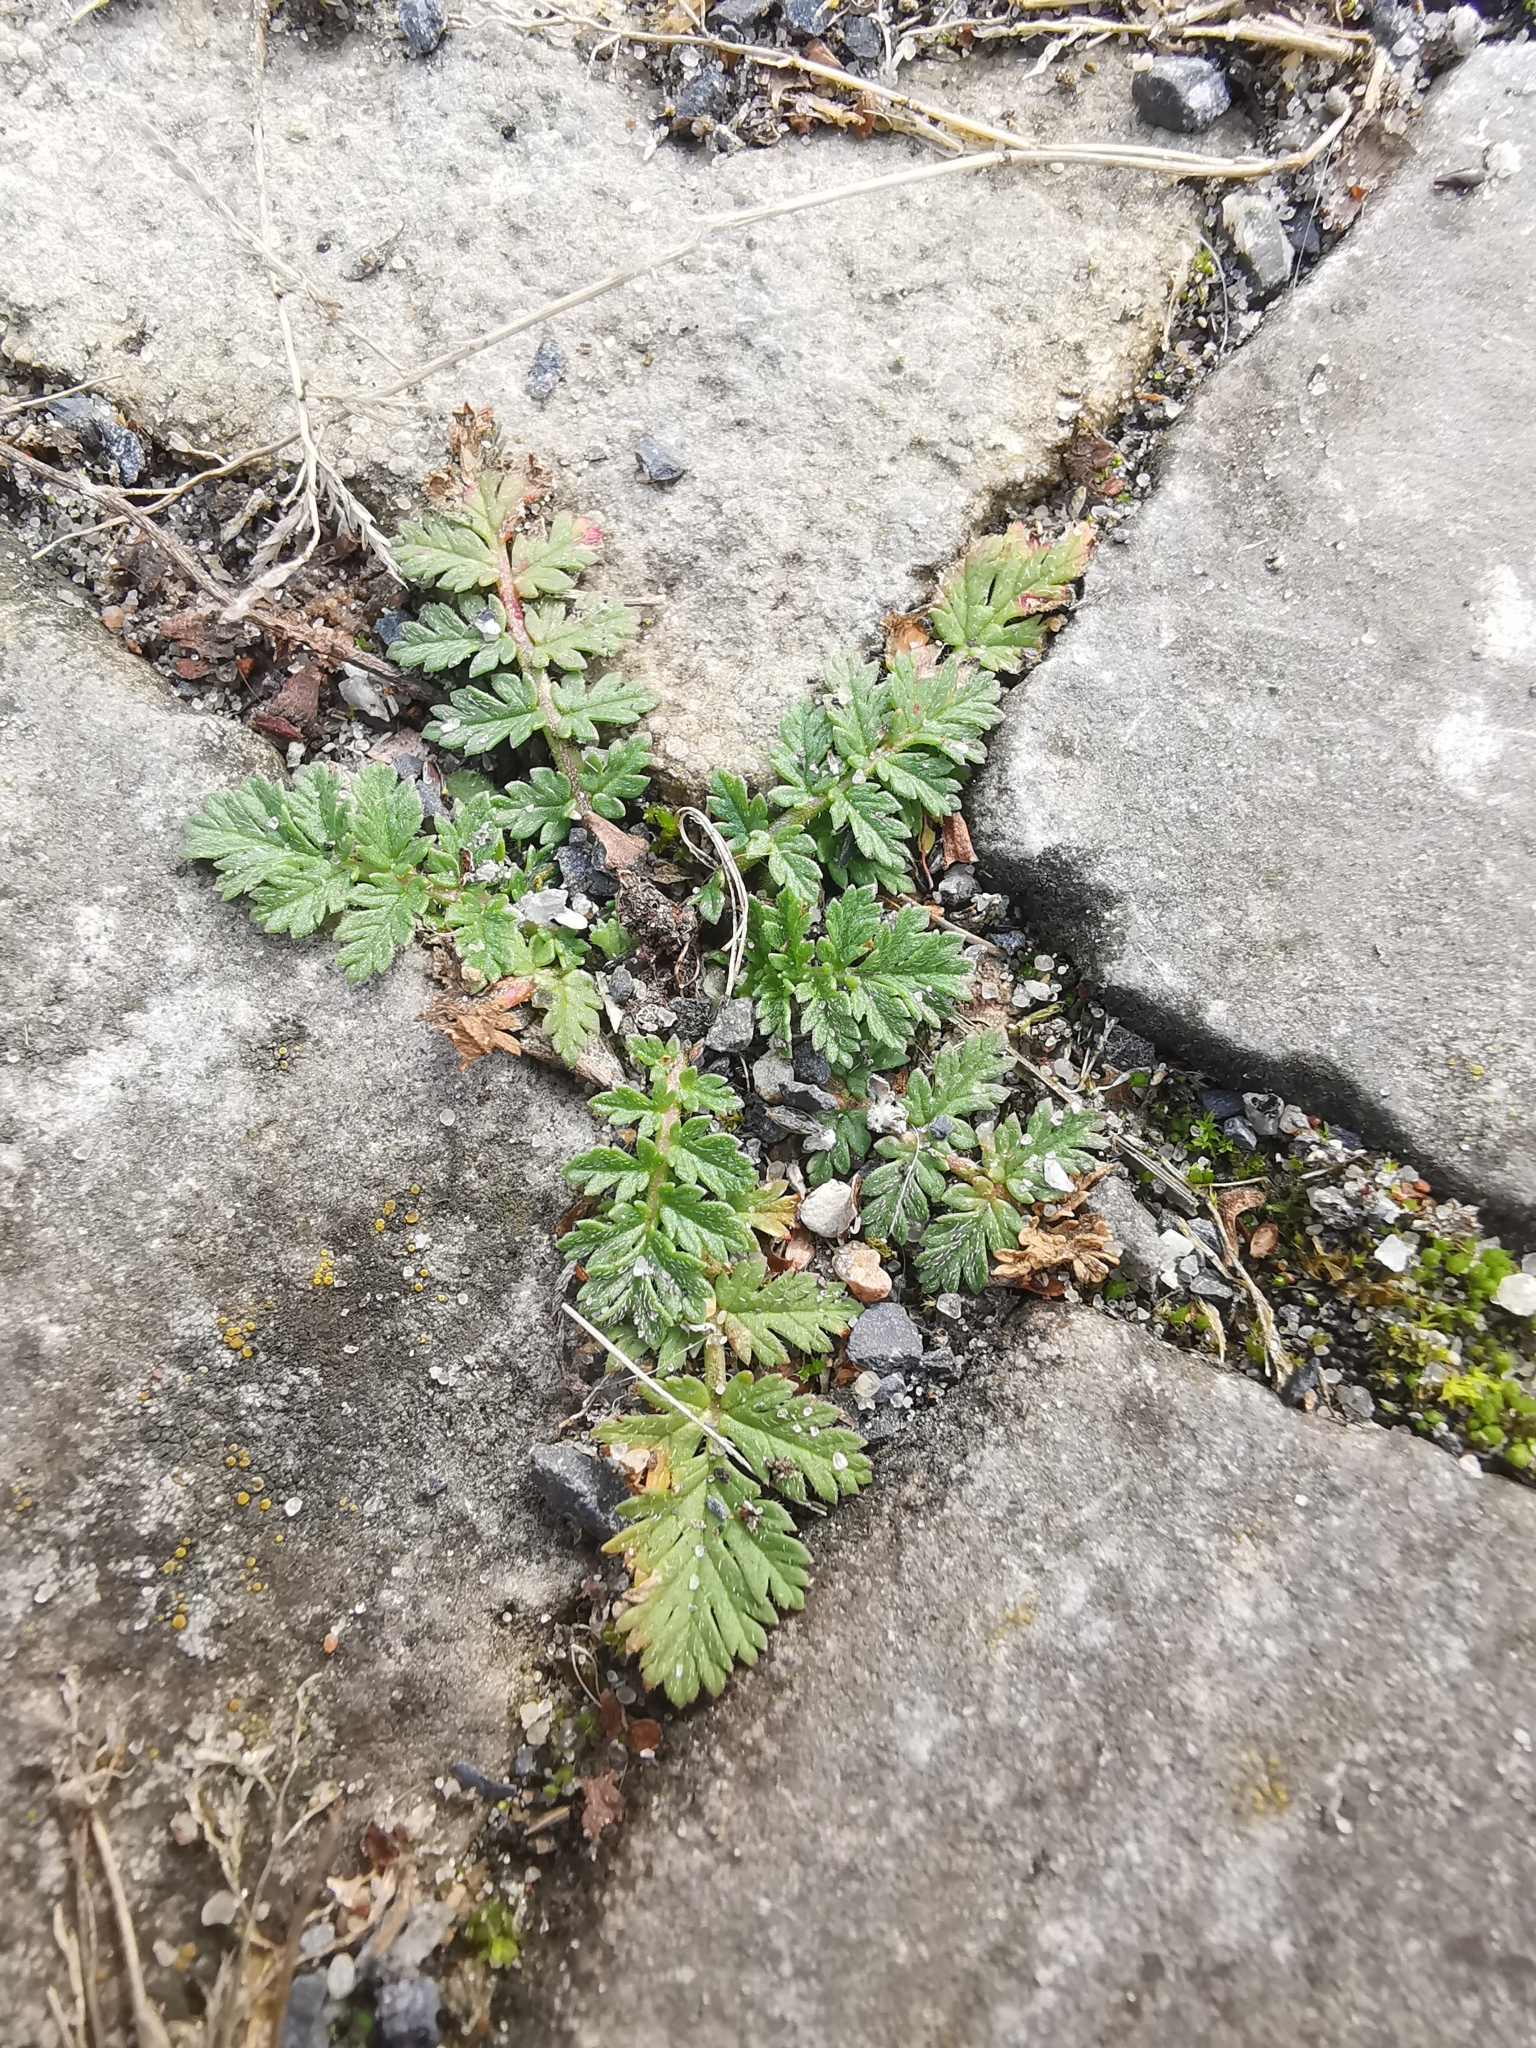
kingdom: Plantae
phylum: Tracheophyta
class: Magnoliopsida
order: Geraniales
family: Geraniaceae
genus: Erodium
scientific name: Erodium cicutarium
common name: Common stork's-bill
